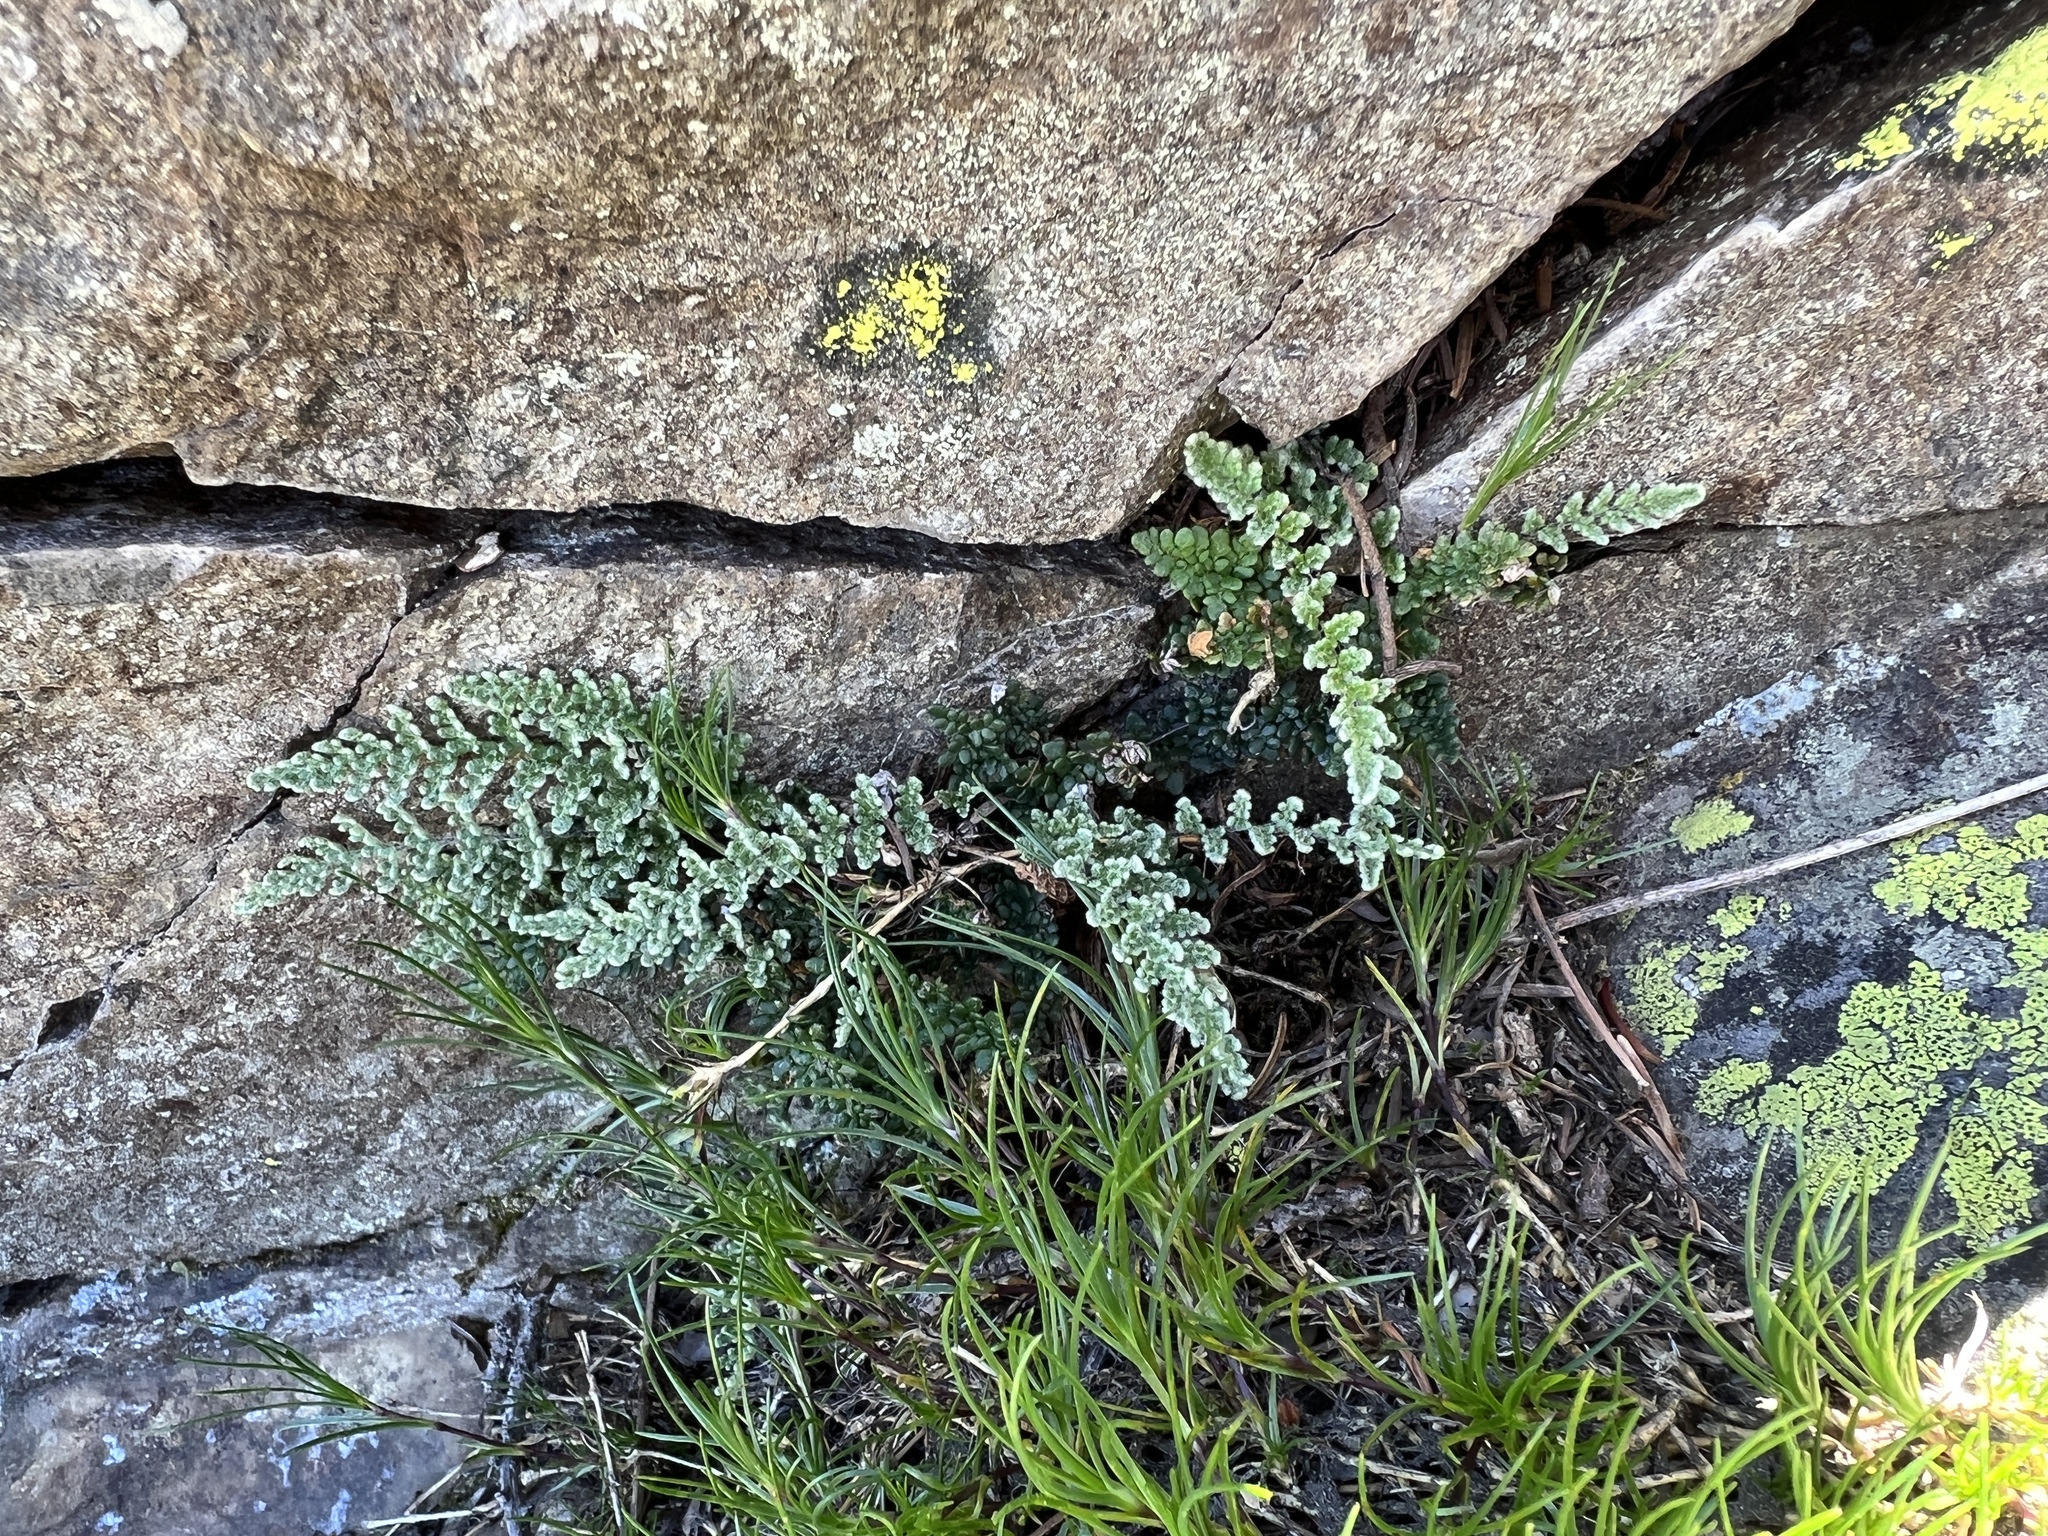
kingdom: Plantae
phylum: Tracheophyta
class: Polypodiopsida
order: Polypodiales
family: Pteridaceae
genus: Myriopteris
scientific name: Myriopteris gracillima
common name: Lace fern
